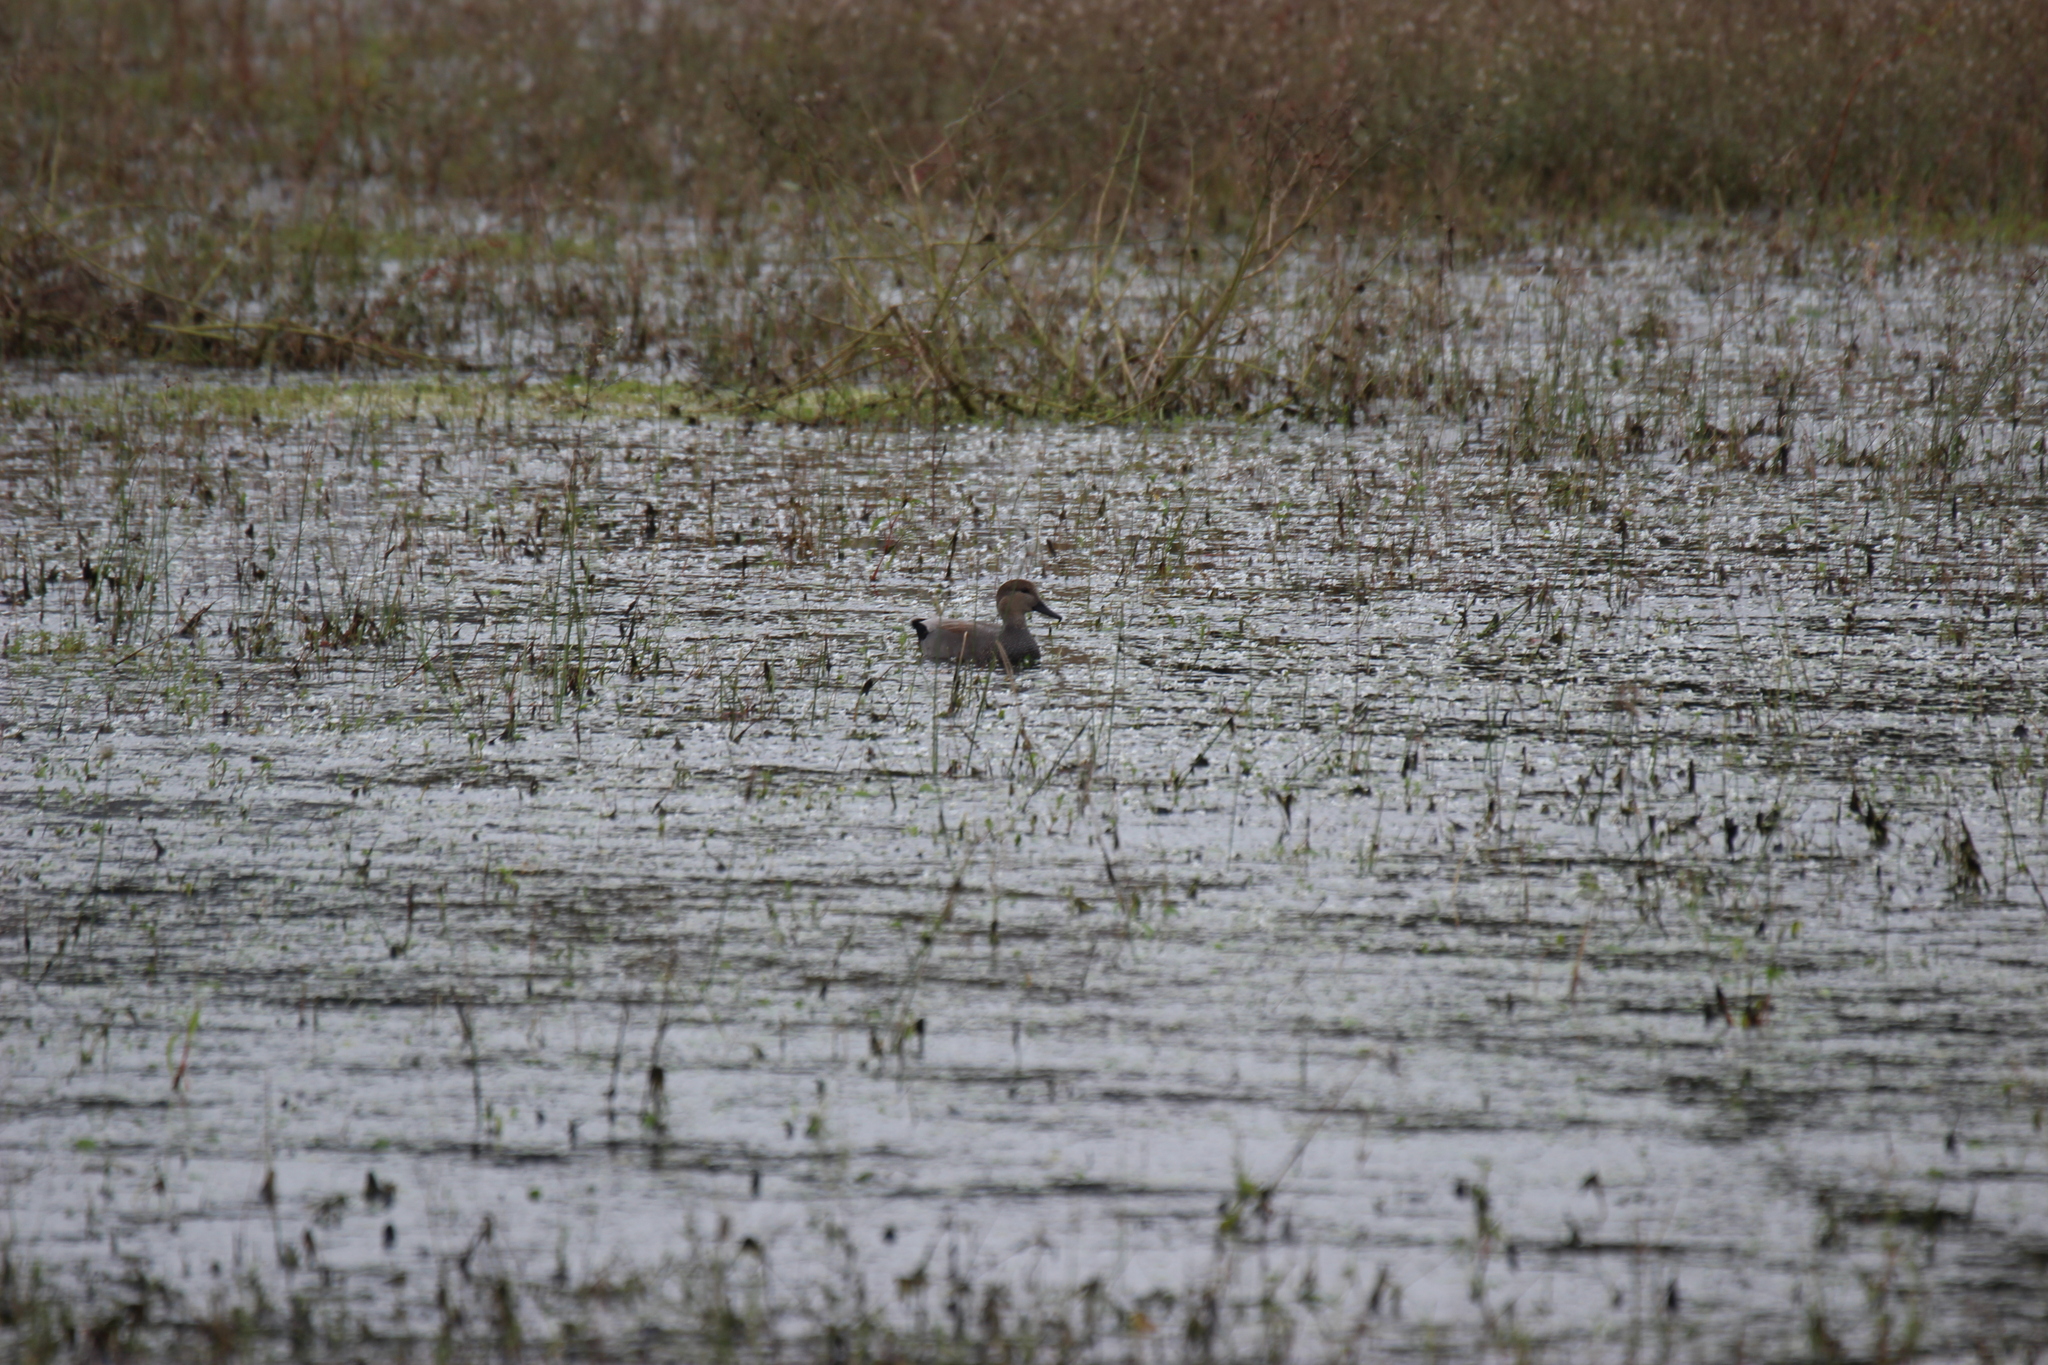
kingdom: Animalia
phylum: Chordata
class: Aves
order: Anseriformes
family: Anatidae
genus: Mareca
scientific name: Mareca strepera
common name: Gadwall
